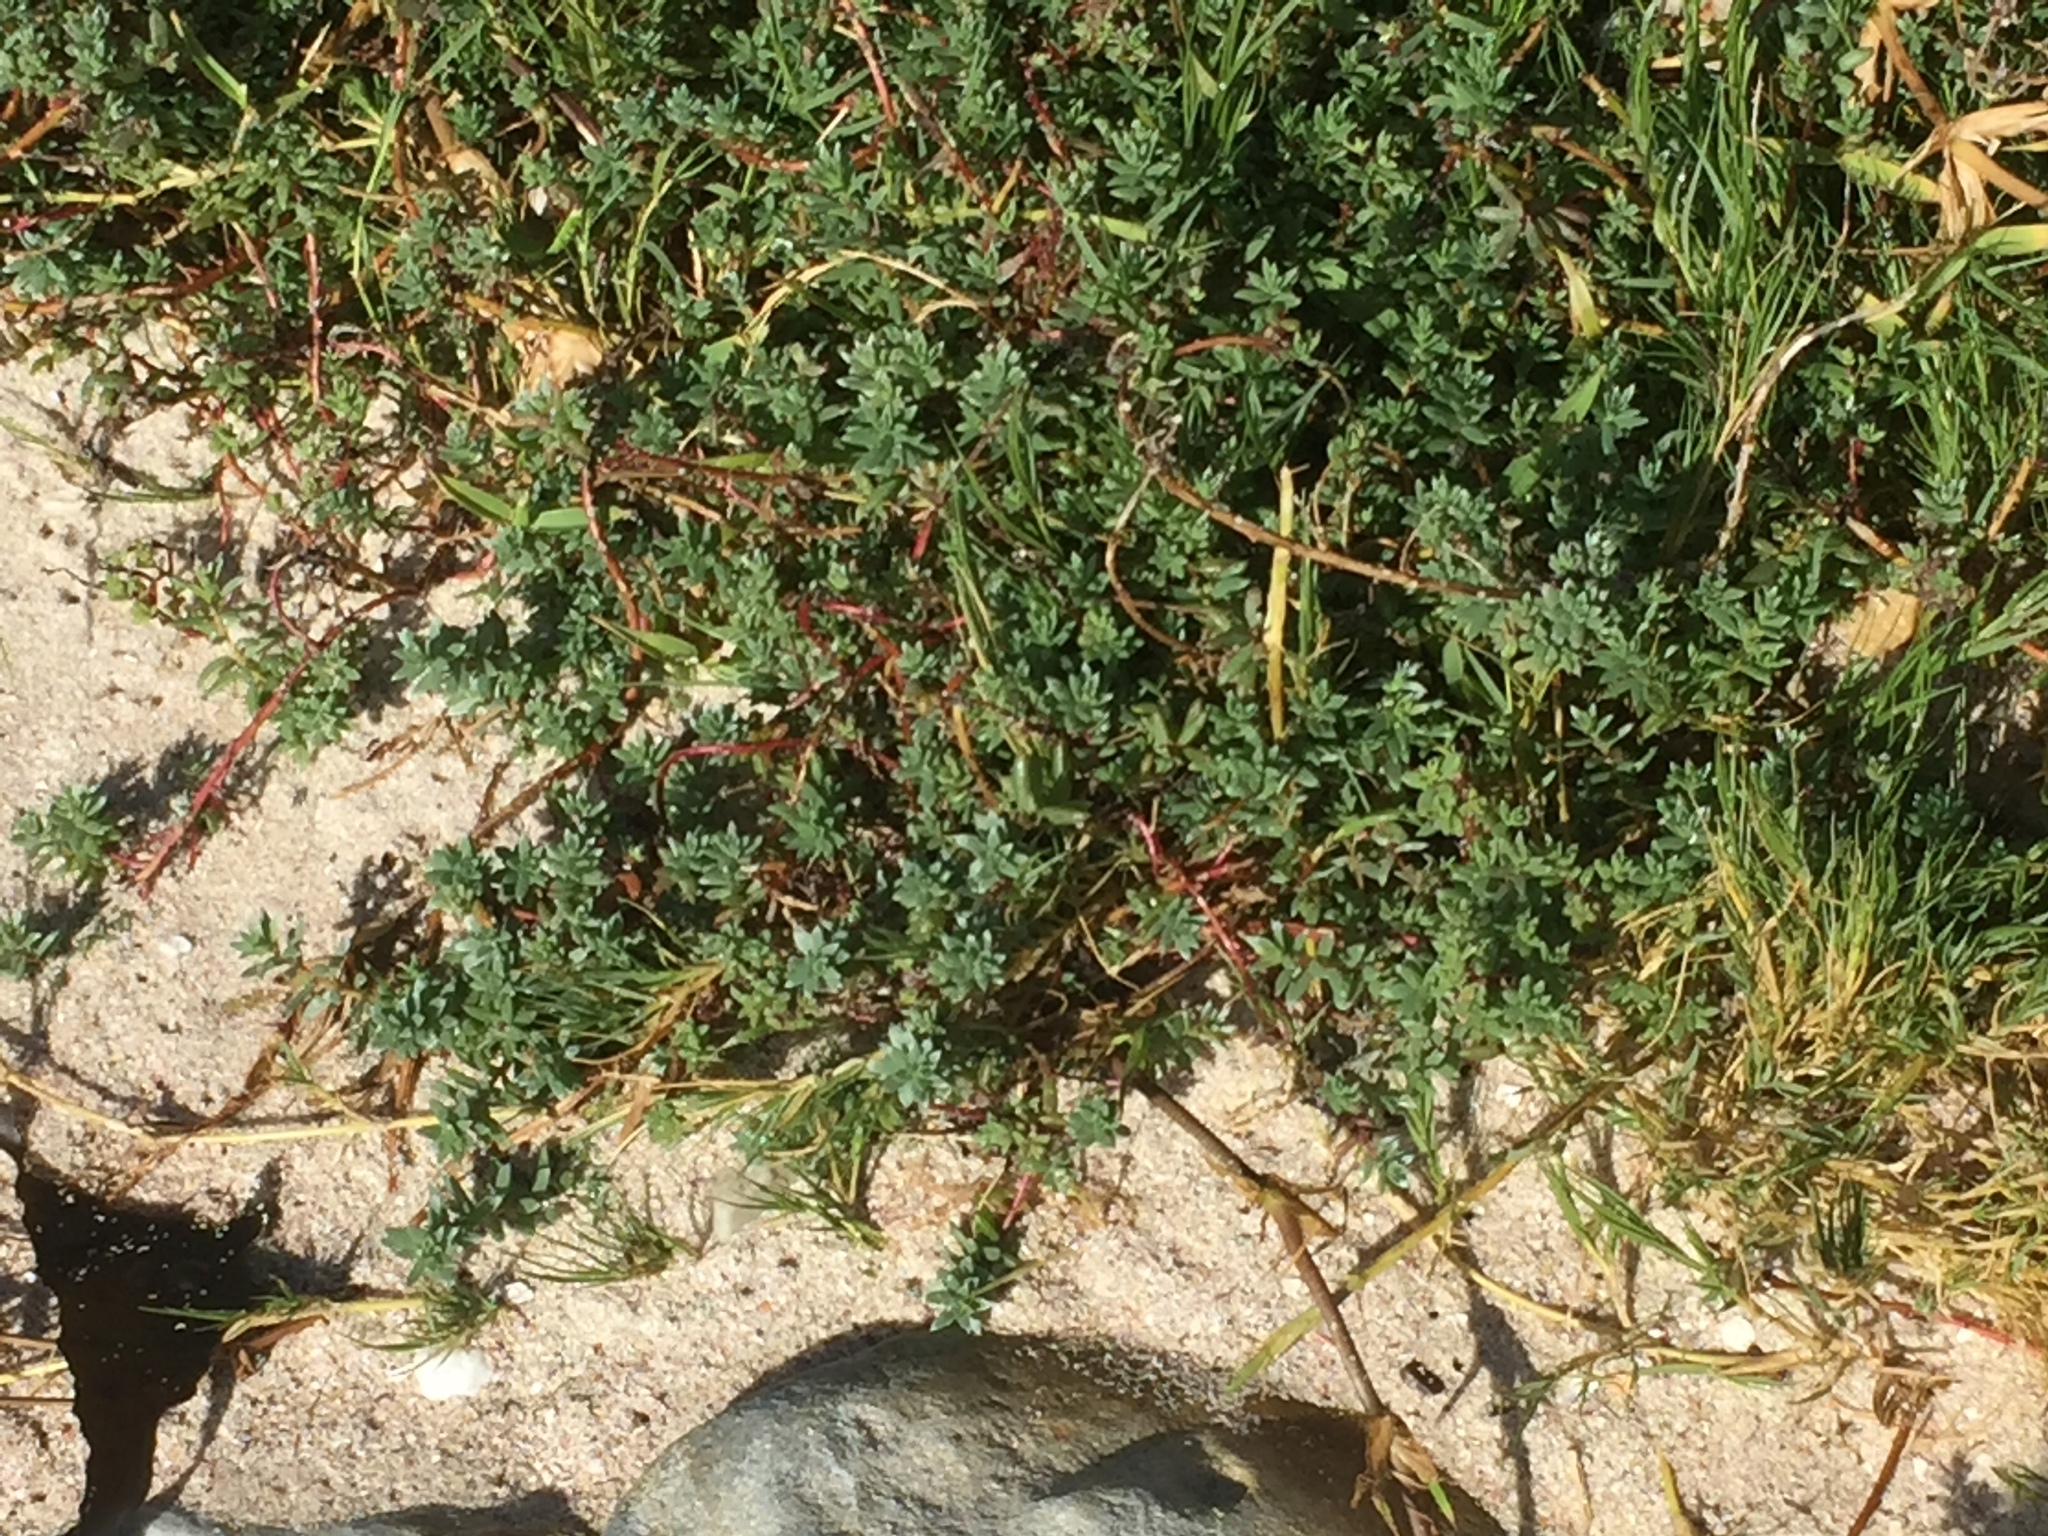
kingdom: Plantae
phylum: Tracheophyta
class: Magnoliopsida
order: Caryophyllales
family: Amaranthaceae
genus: Chenolea
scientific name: Chenolea diffusa
